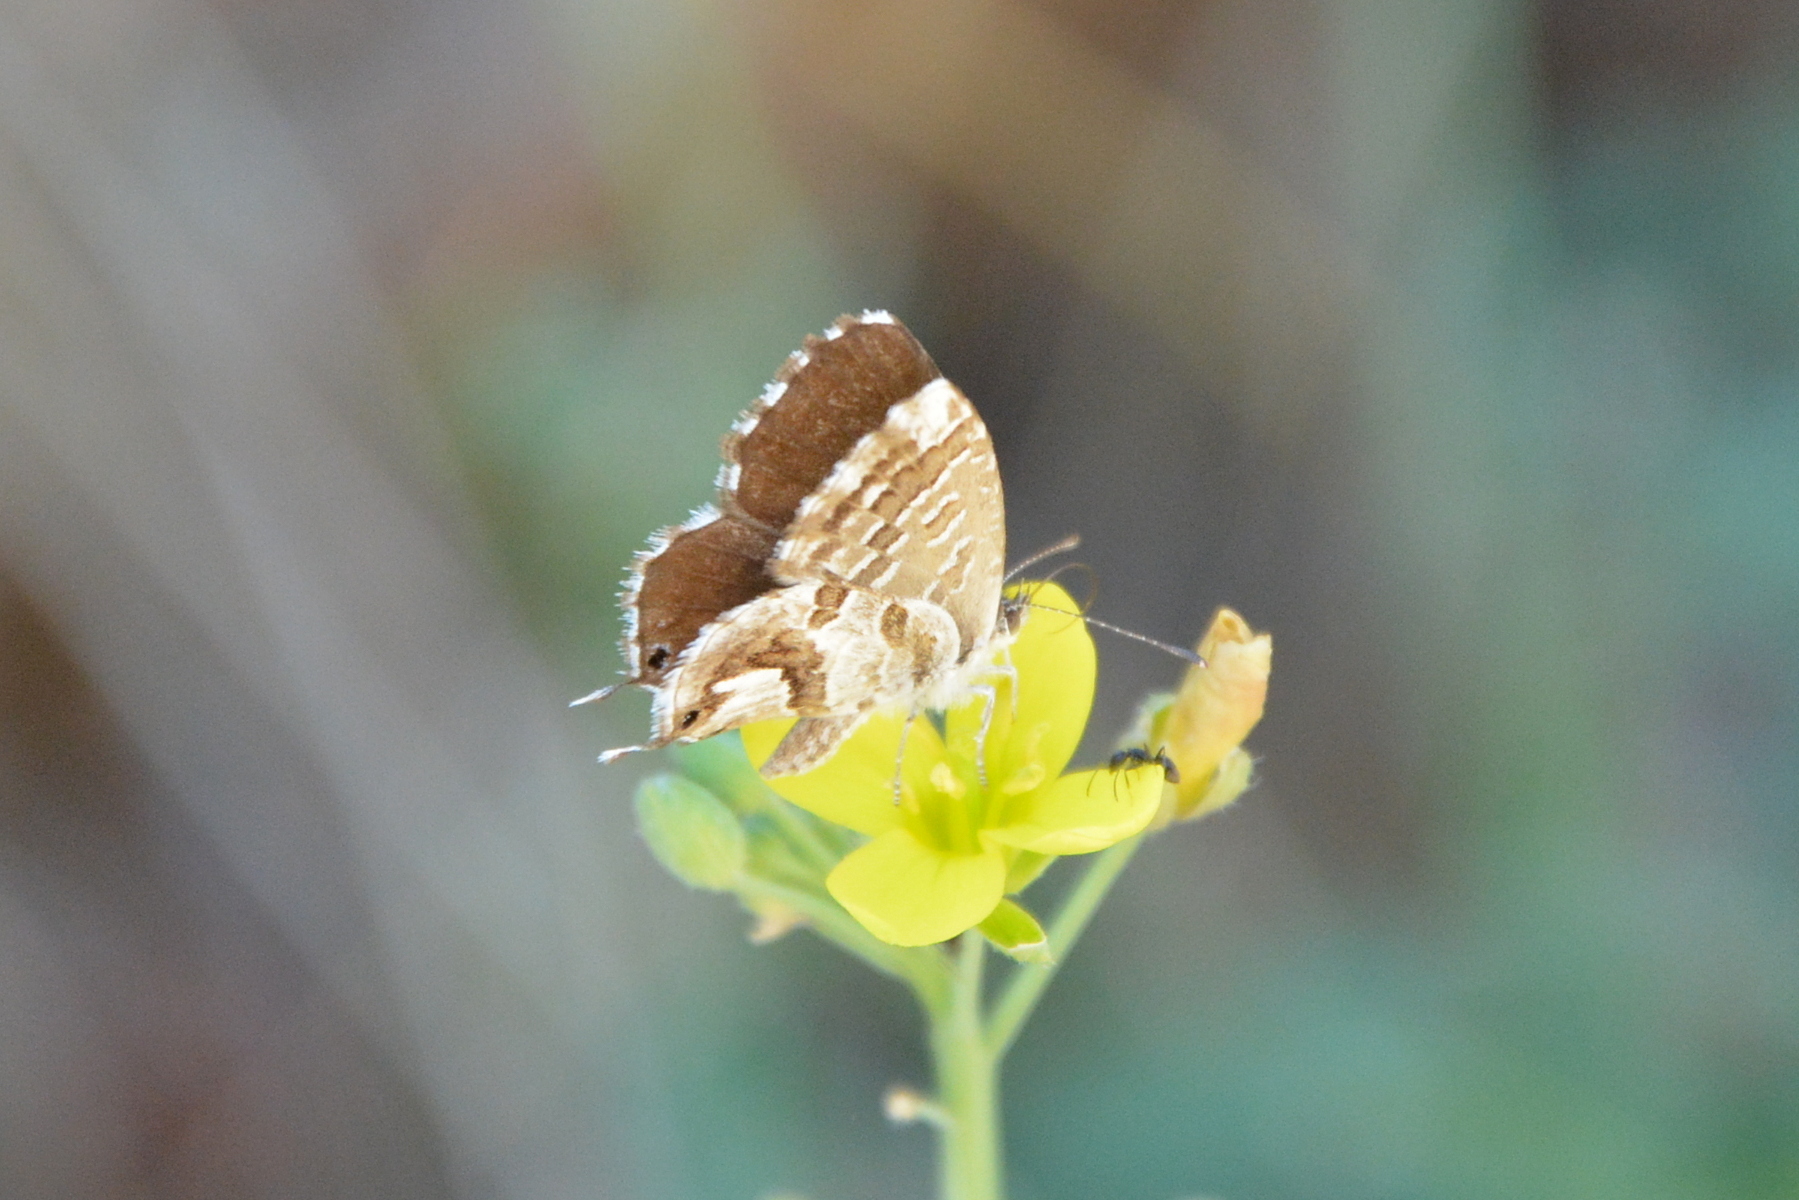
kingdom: Animalia
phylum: Arthropoda
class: Insecta
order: Lepidoptera
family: Lycaenidae
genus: Cacyreus
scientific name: Cacyreus marshalli
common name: Geranium bronze
